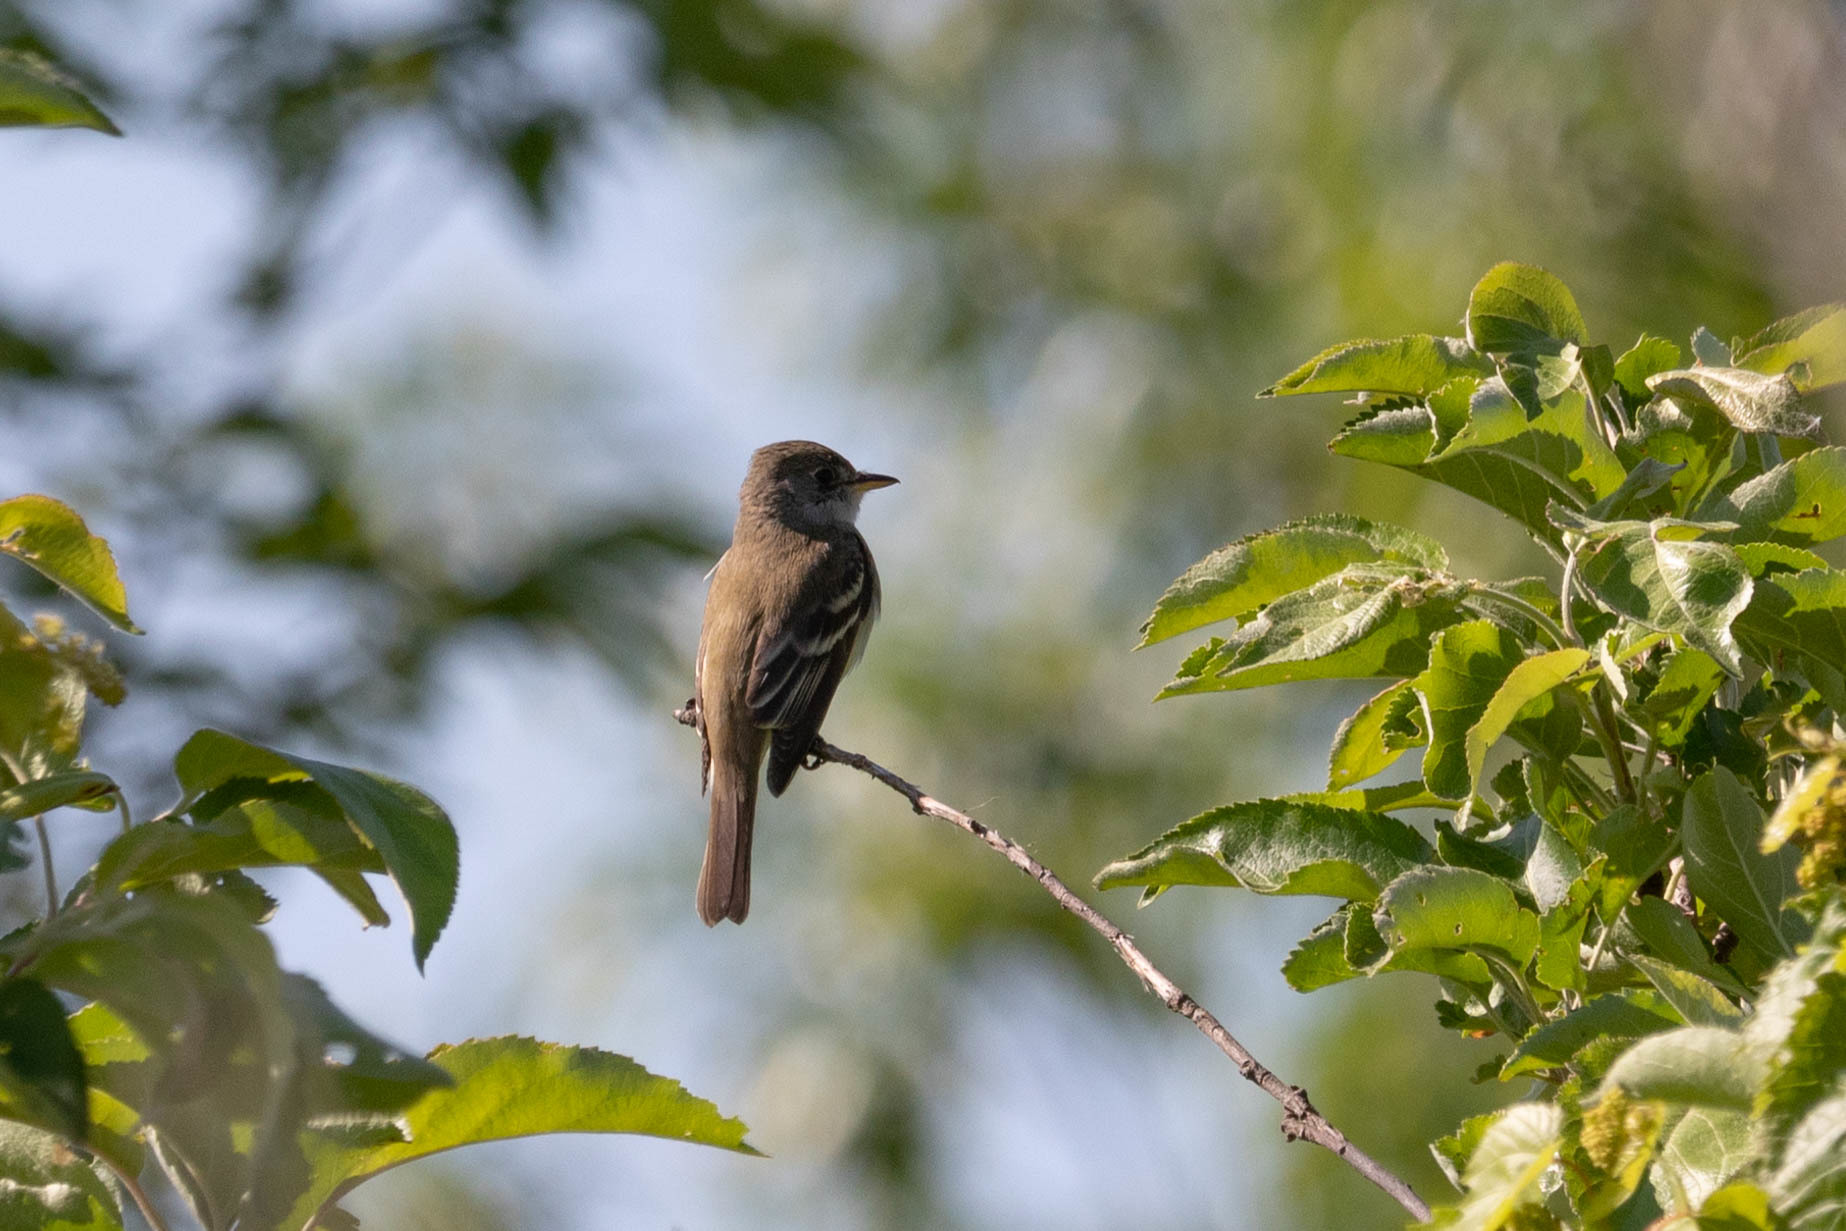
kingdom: Animalia
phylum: Chordata
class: Aves
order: Passeriformes
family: Tyrannidae
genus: Empidonax
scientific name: Empidonax traillii
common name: Willow flycatcher
